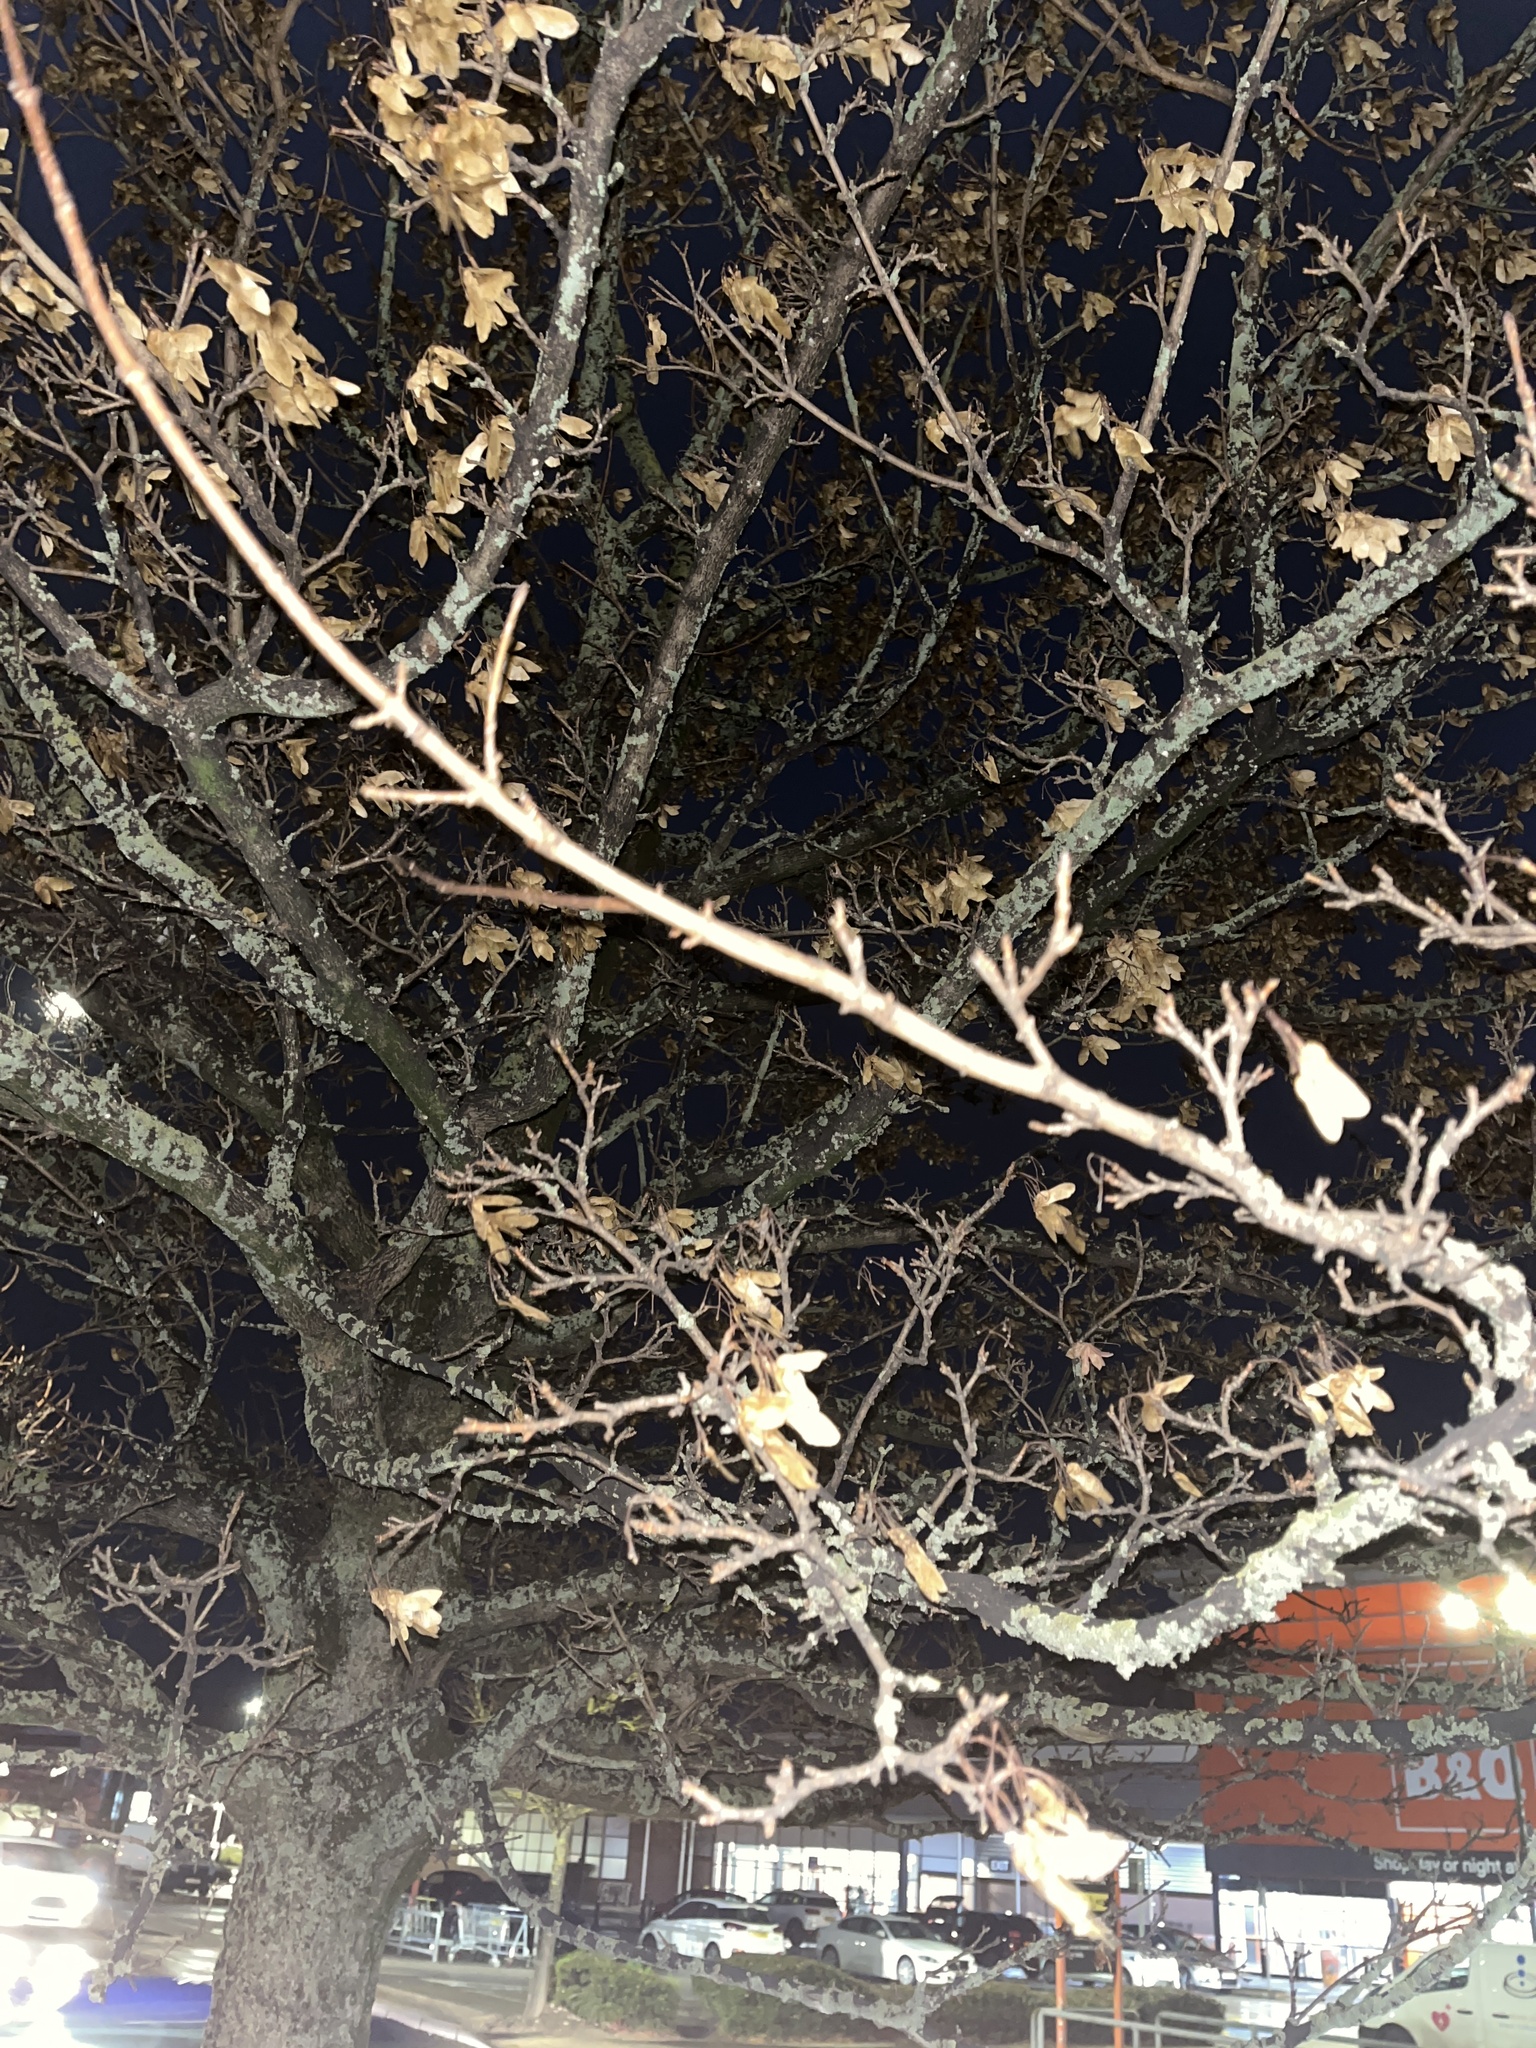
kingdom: Plantae
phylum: Tracheophyta
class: Magnoliopsida
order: Sapindales
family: Sapindaceae
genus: Acer
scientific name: Acer pseudoplatanus
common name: Sycamore
